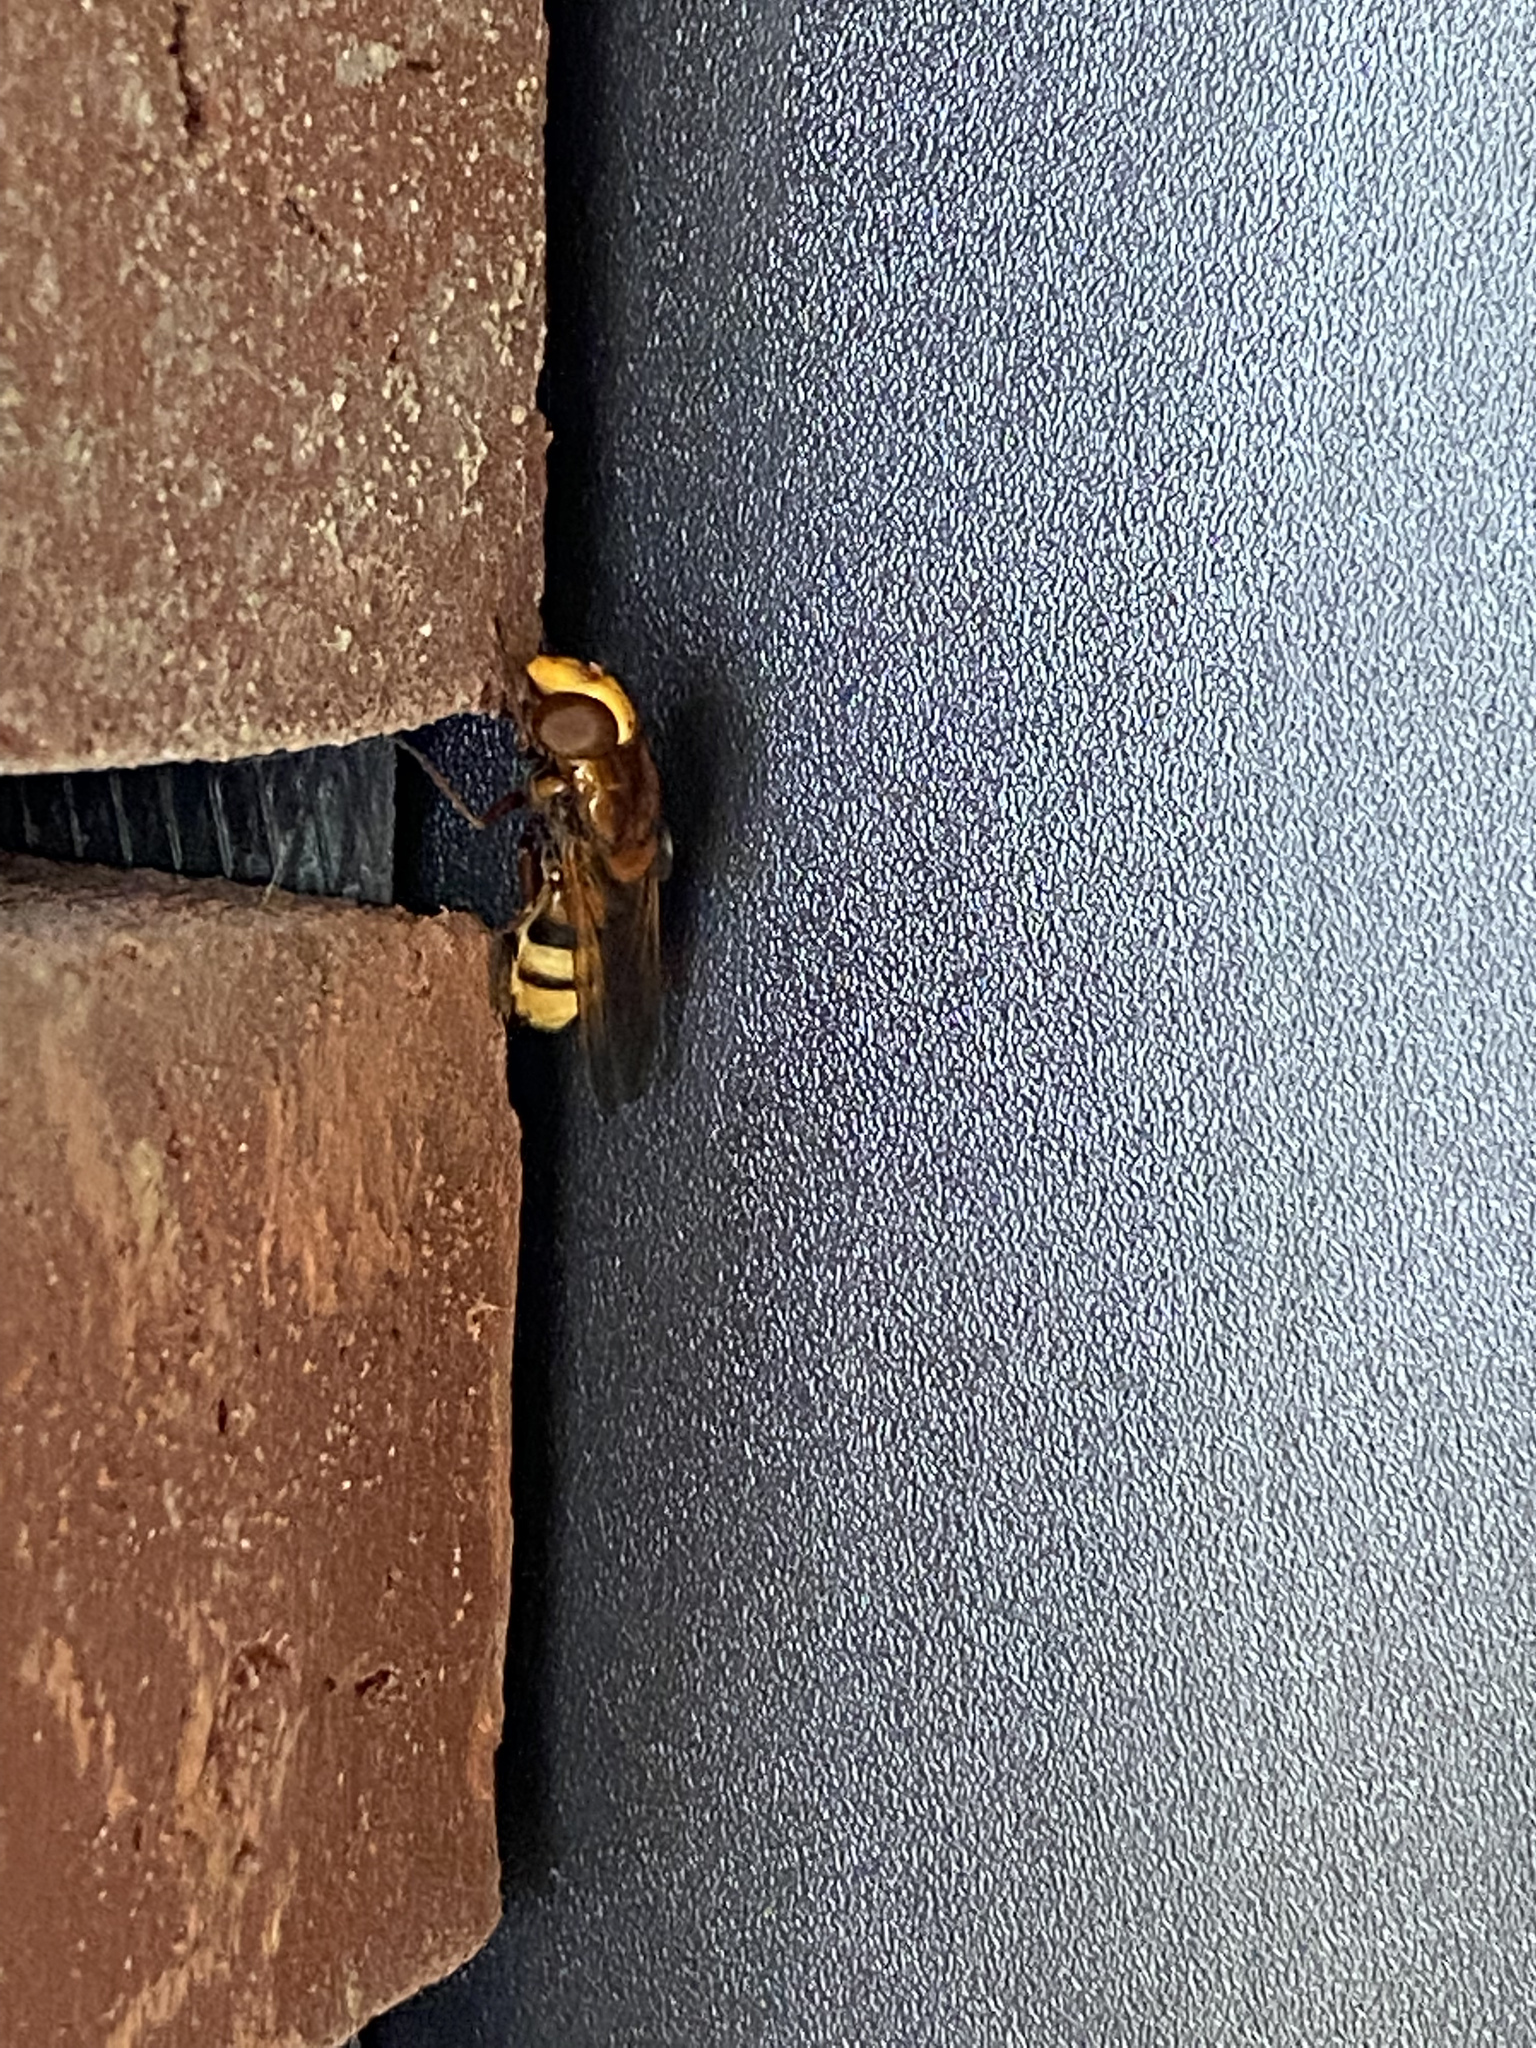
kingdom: Animalia
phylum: Arthropoda
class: Insecta
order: Diptera
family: Syrphidae
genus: Volucella
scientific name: Volucella zonaria
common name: Hornet hoverfly
